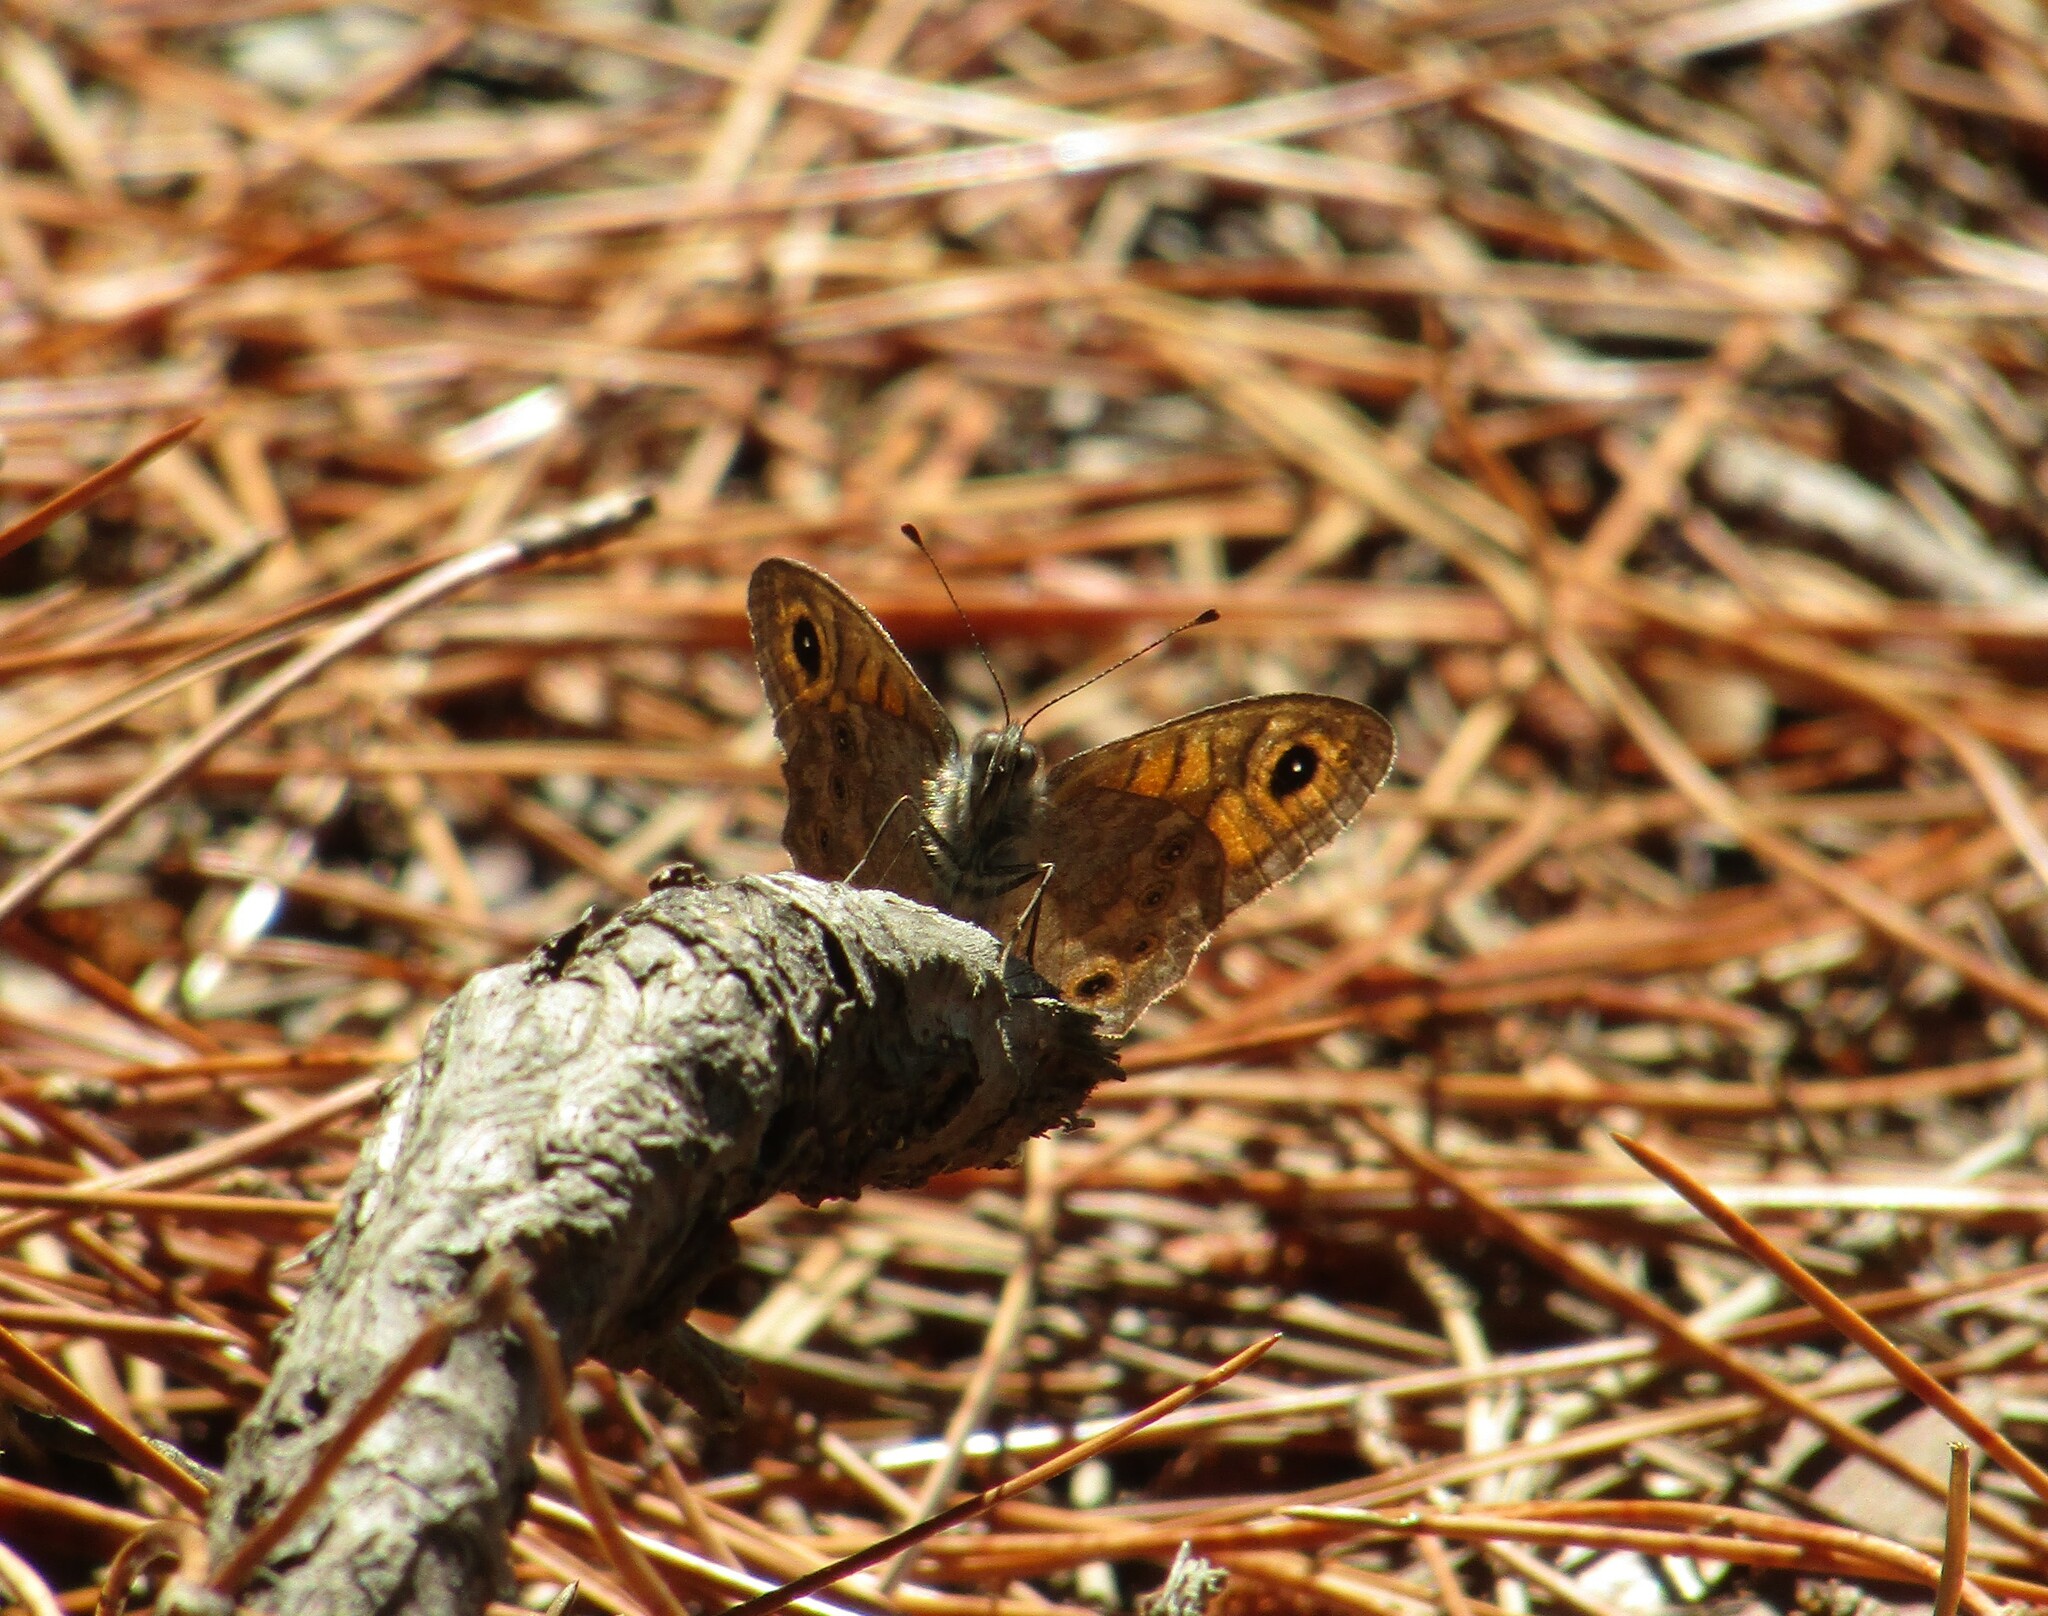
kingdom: Animalia
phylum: Arthropoda
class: Insecta
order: Lepidoptera
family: Nymphalidae
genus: Pararge
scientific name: Pararge Lasiommata megera
